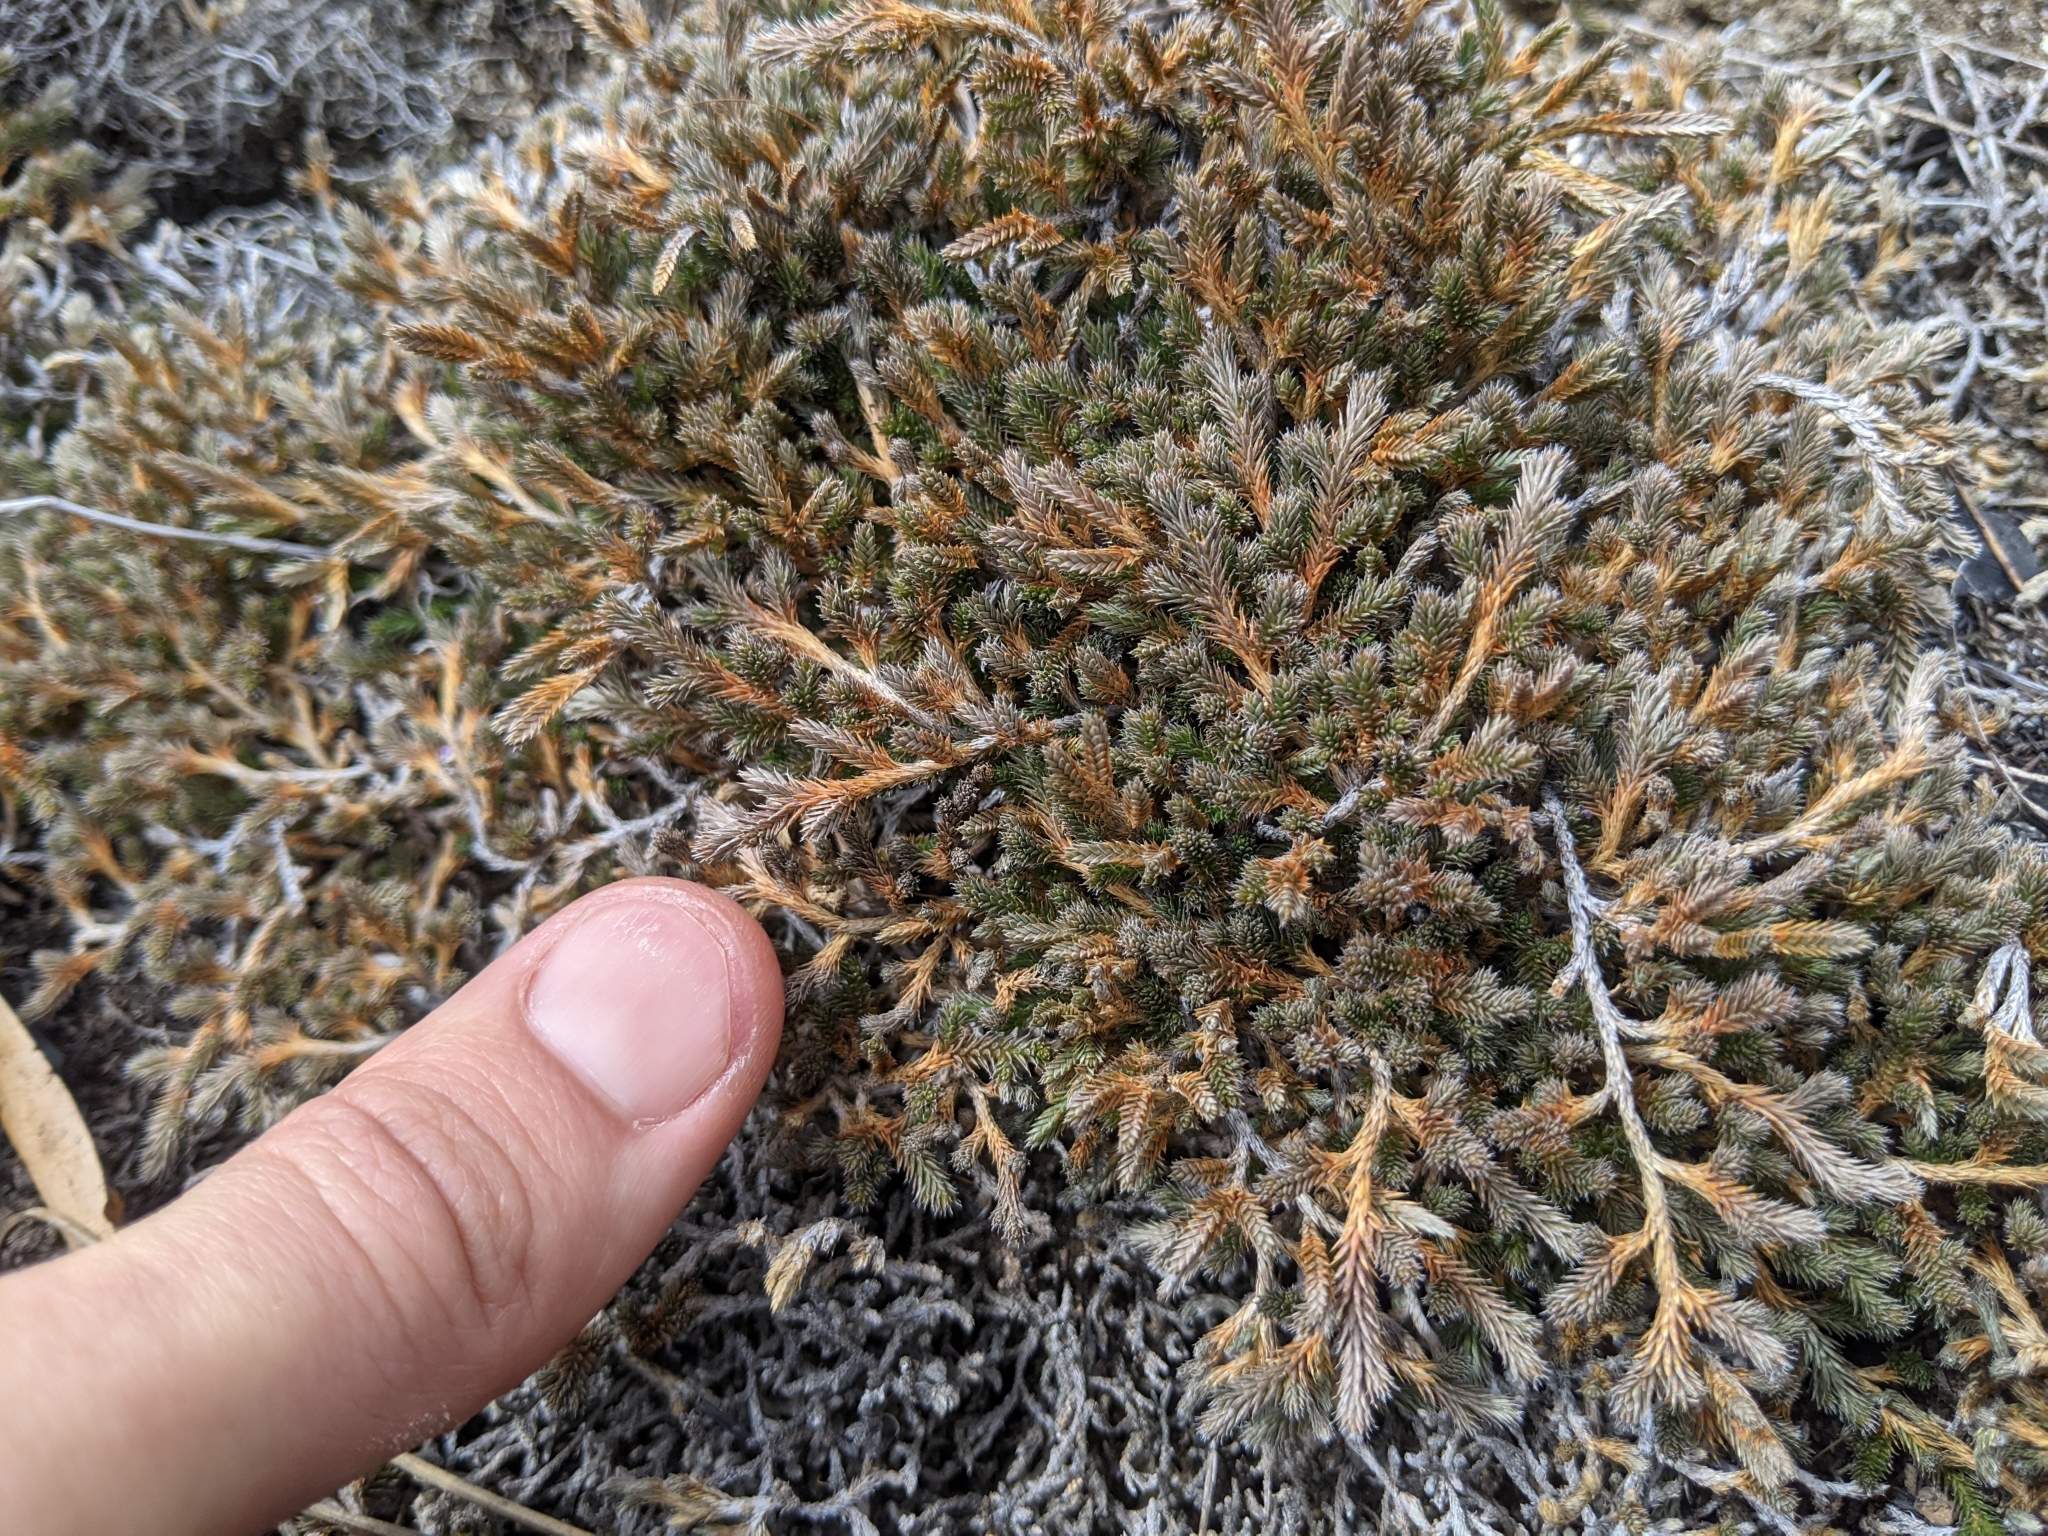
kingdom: Plantae
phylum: Tracheophyta
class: Lycopodiopsida
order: Selaginellales
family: Selaginellaceae
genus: Selaginella
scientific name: Selaginella wallacei
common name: Wallace's selaginella
